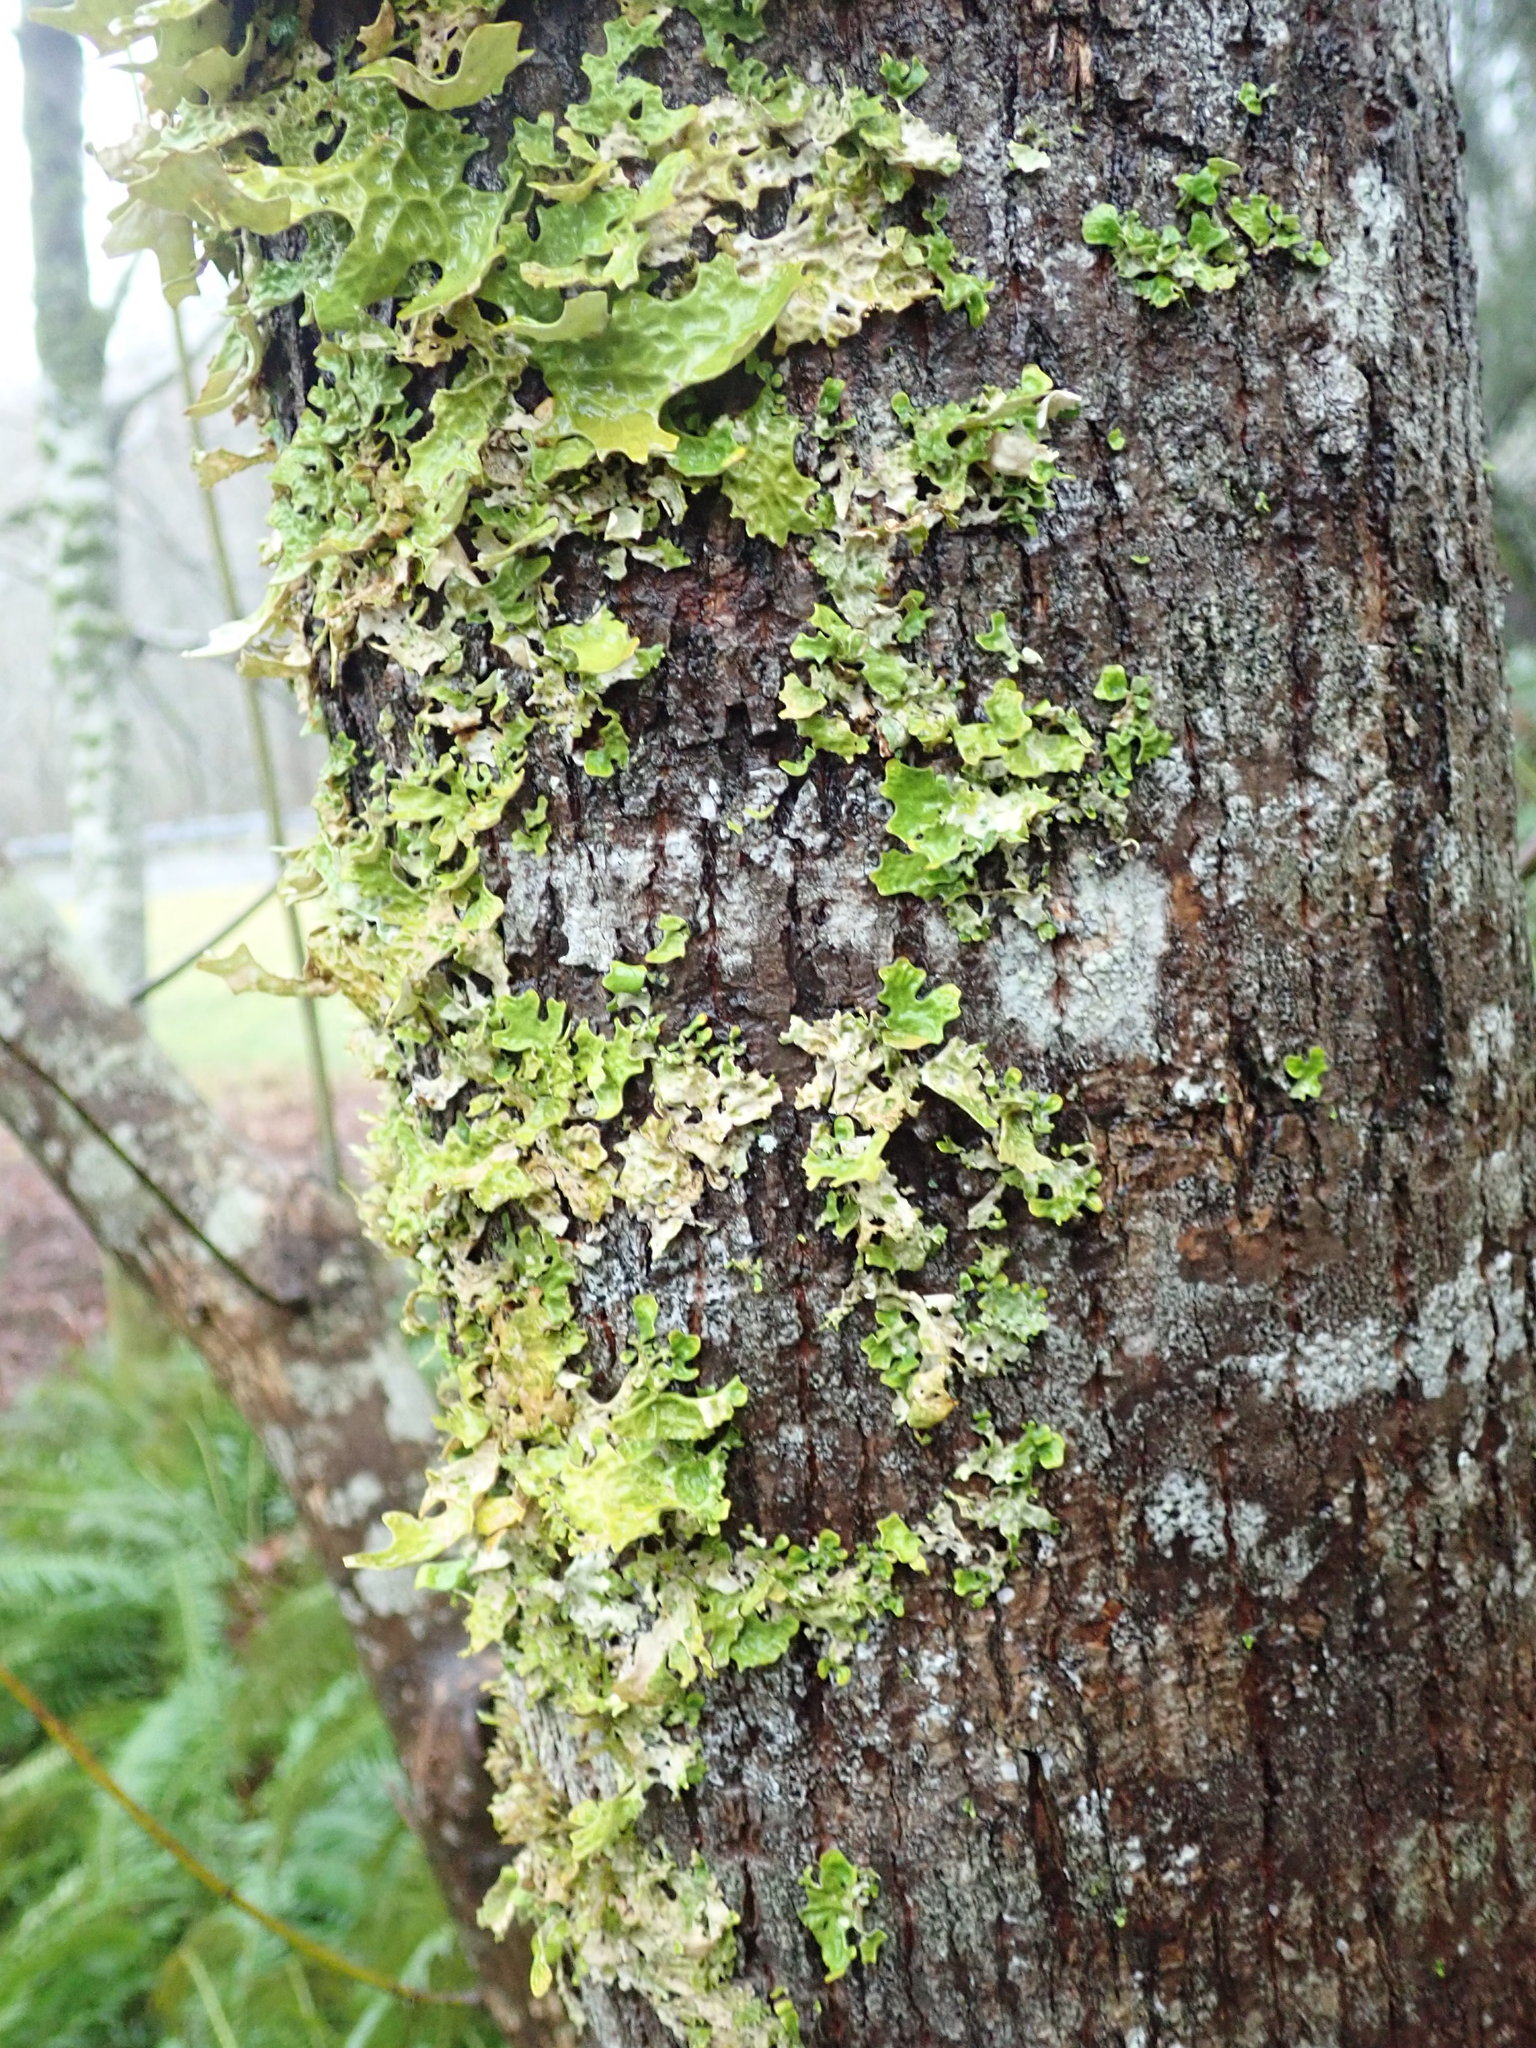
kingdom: Fungi
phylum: Ascomycota
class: Lecanoromycetes
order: Peltigerales
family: Lobariaceae
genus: Lobaria
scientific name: Lobaria pulmonaria
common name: Lungwort
